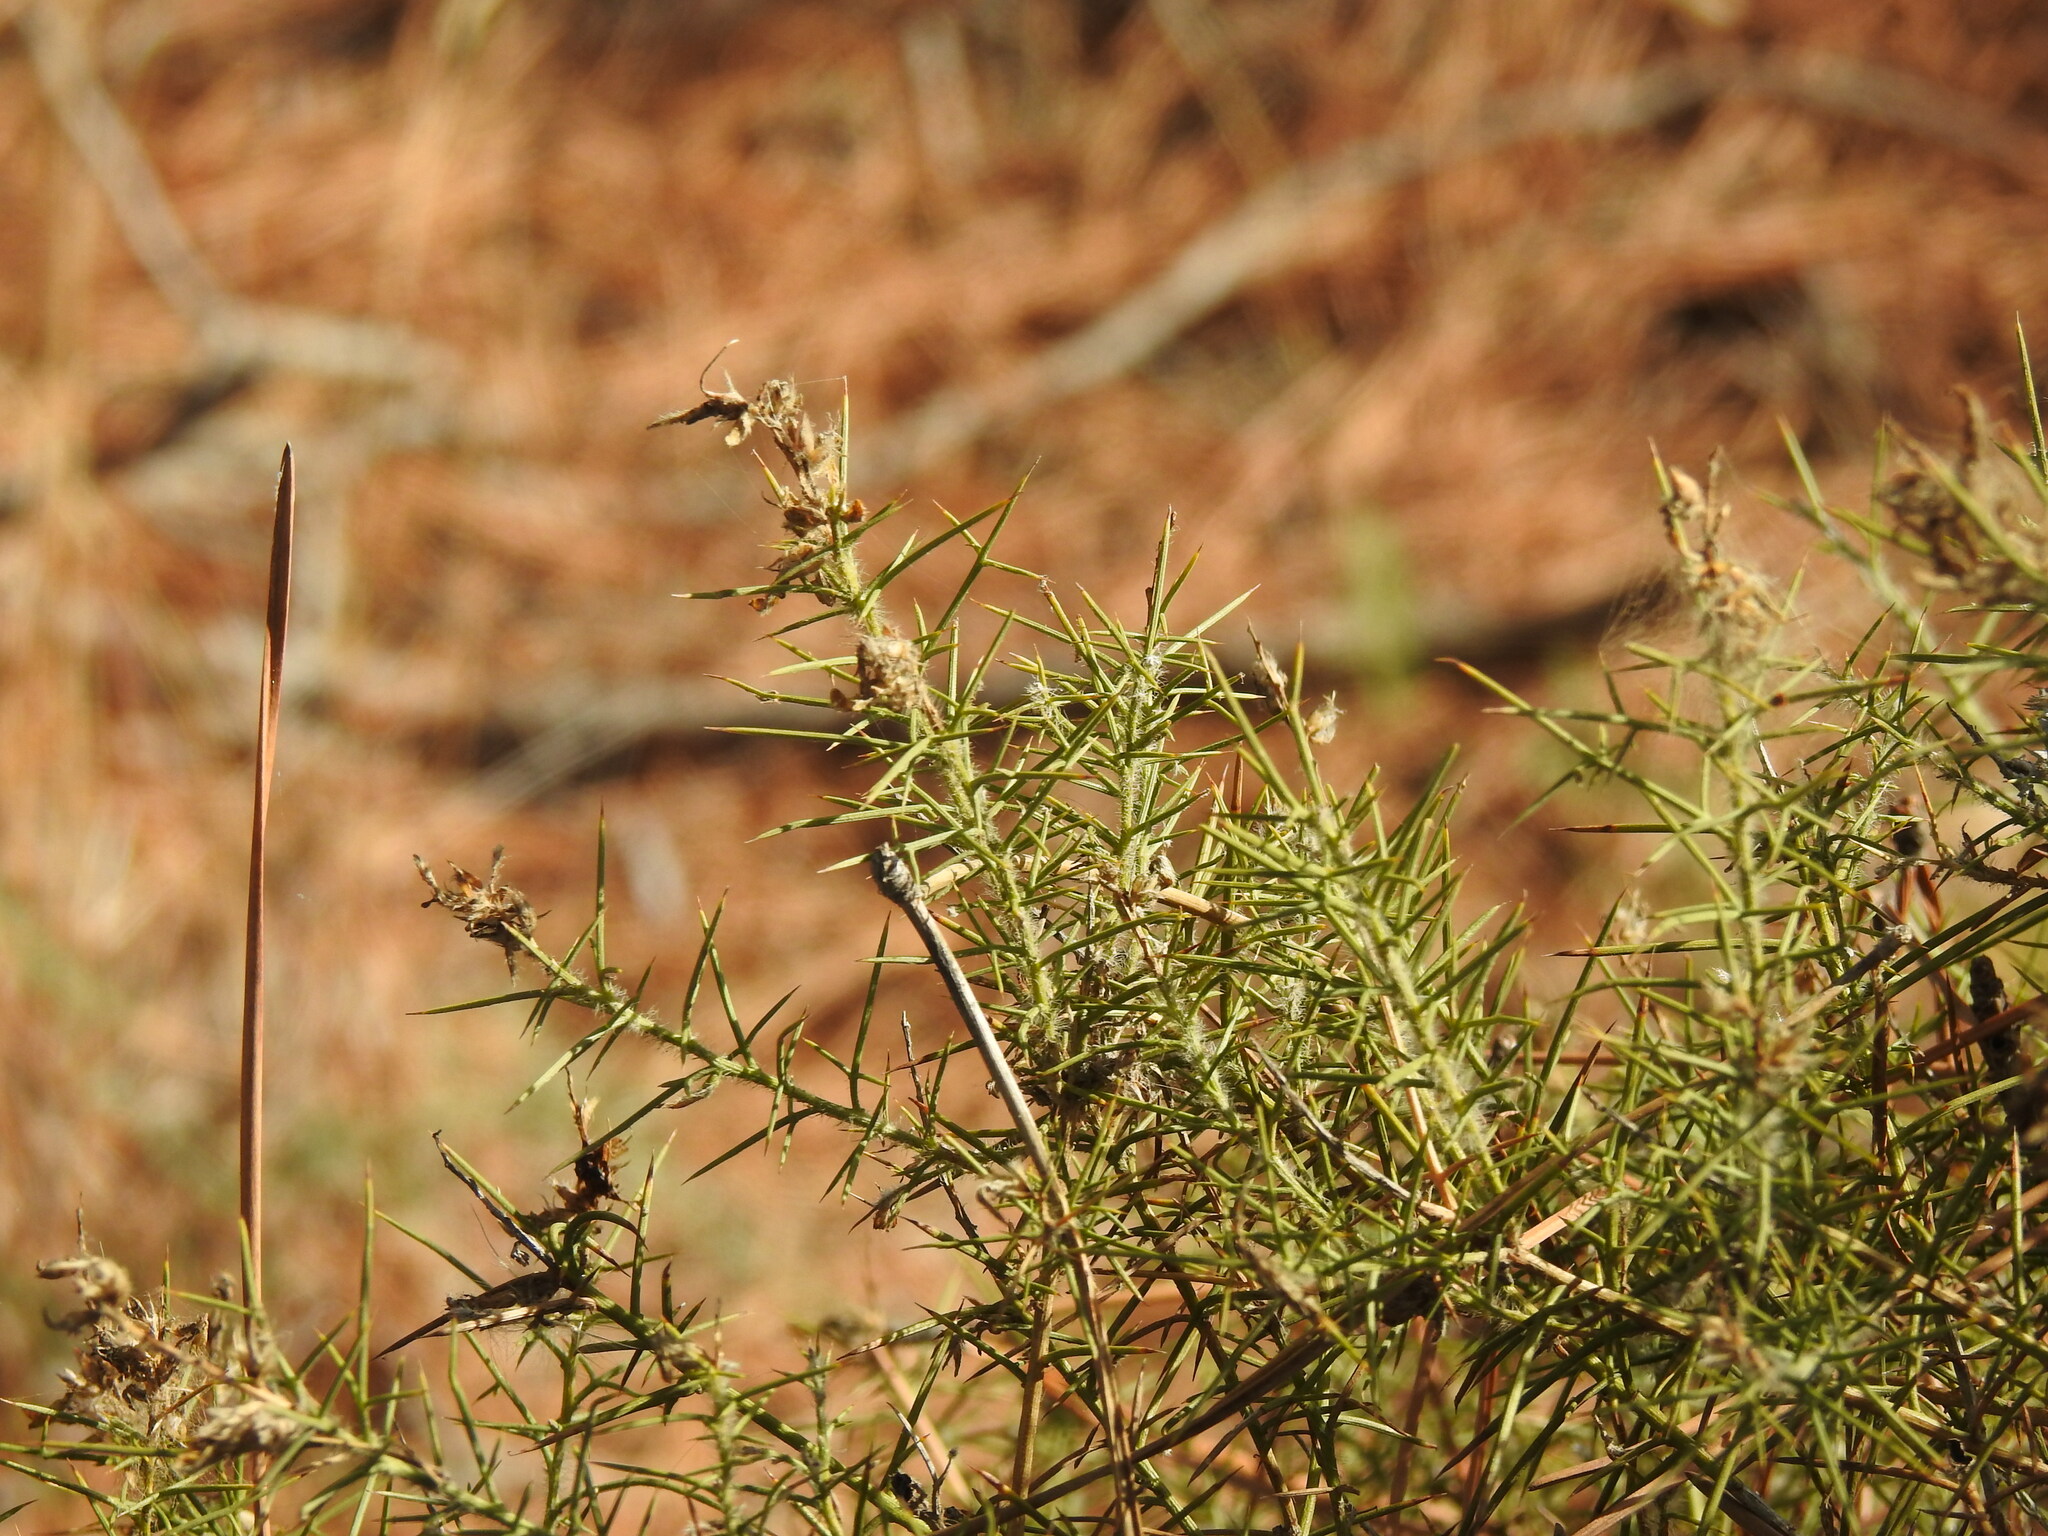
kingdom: Plantae
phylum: Tracheophyta
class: Magnoliopsida
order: Fabales
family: Fabaceae
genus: Genista
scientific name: Genista hirsuta
